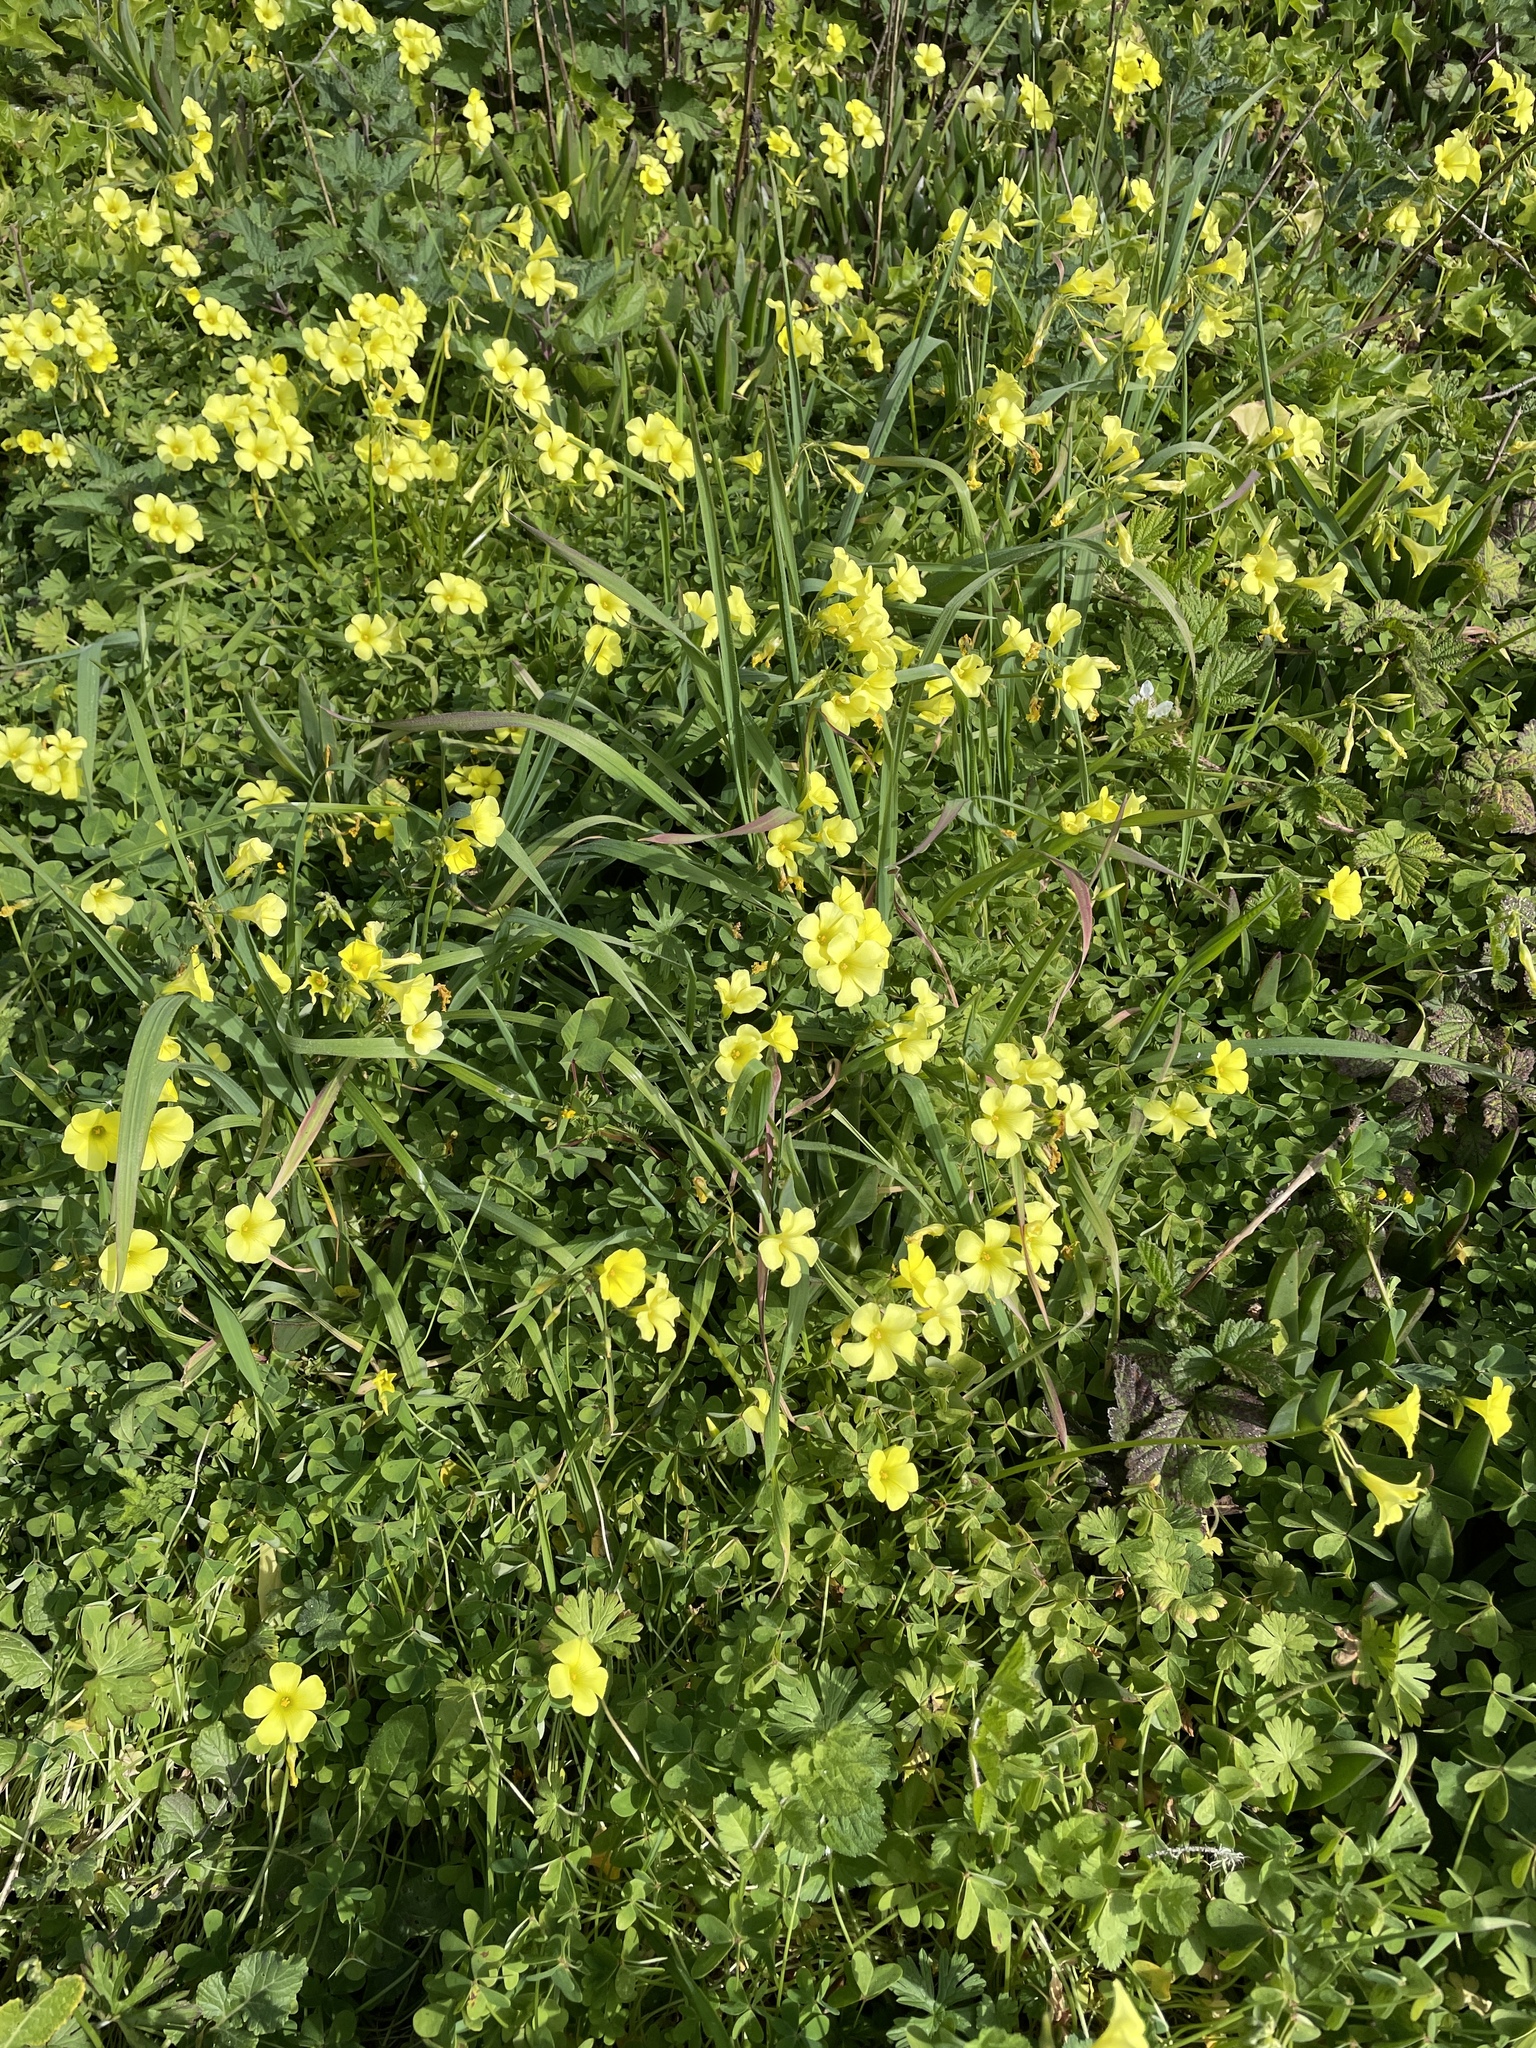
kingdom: Plantae
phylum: Tracheophyta
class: Magnoliopsida
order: Oxalidales
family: Oxalidaceae
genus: Oxalis
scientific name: Oxalis pes-caprae
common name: Bermuda-buttercup
